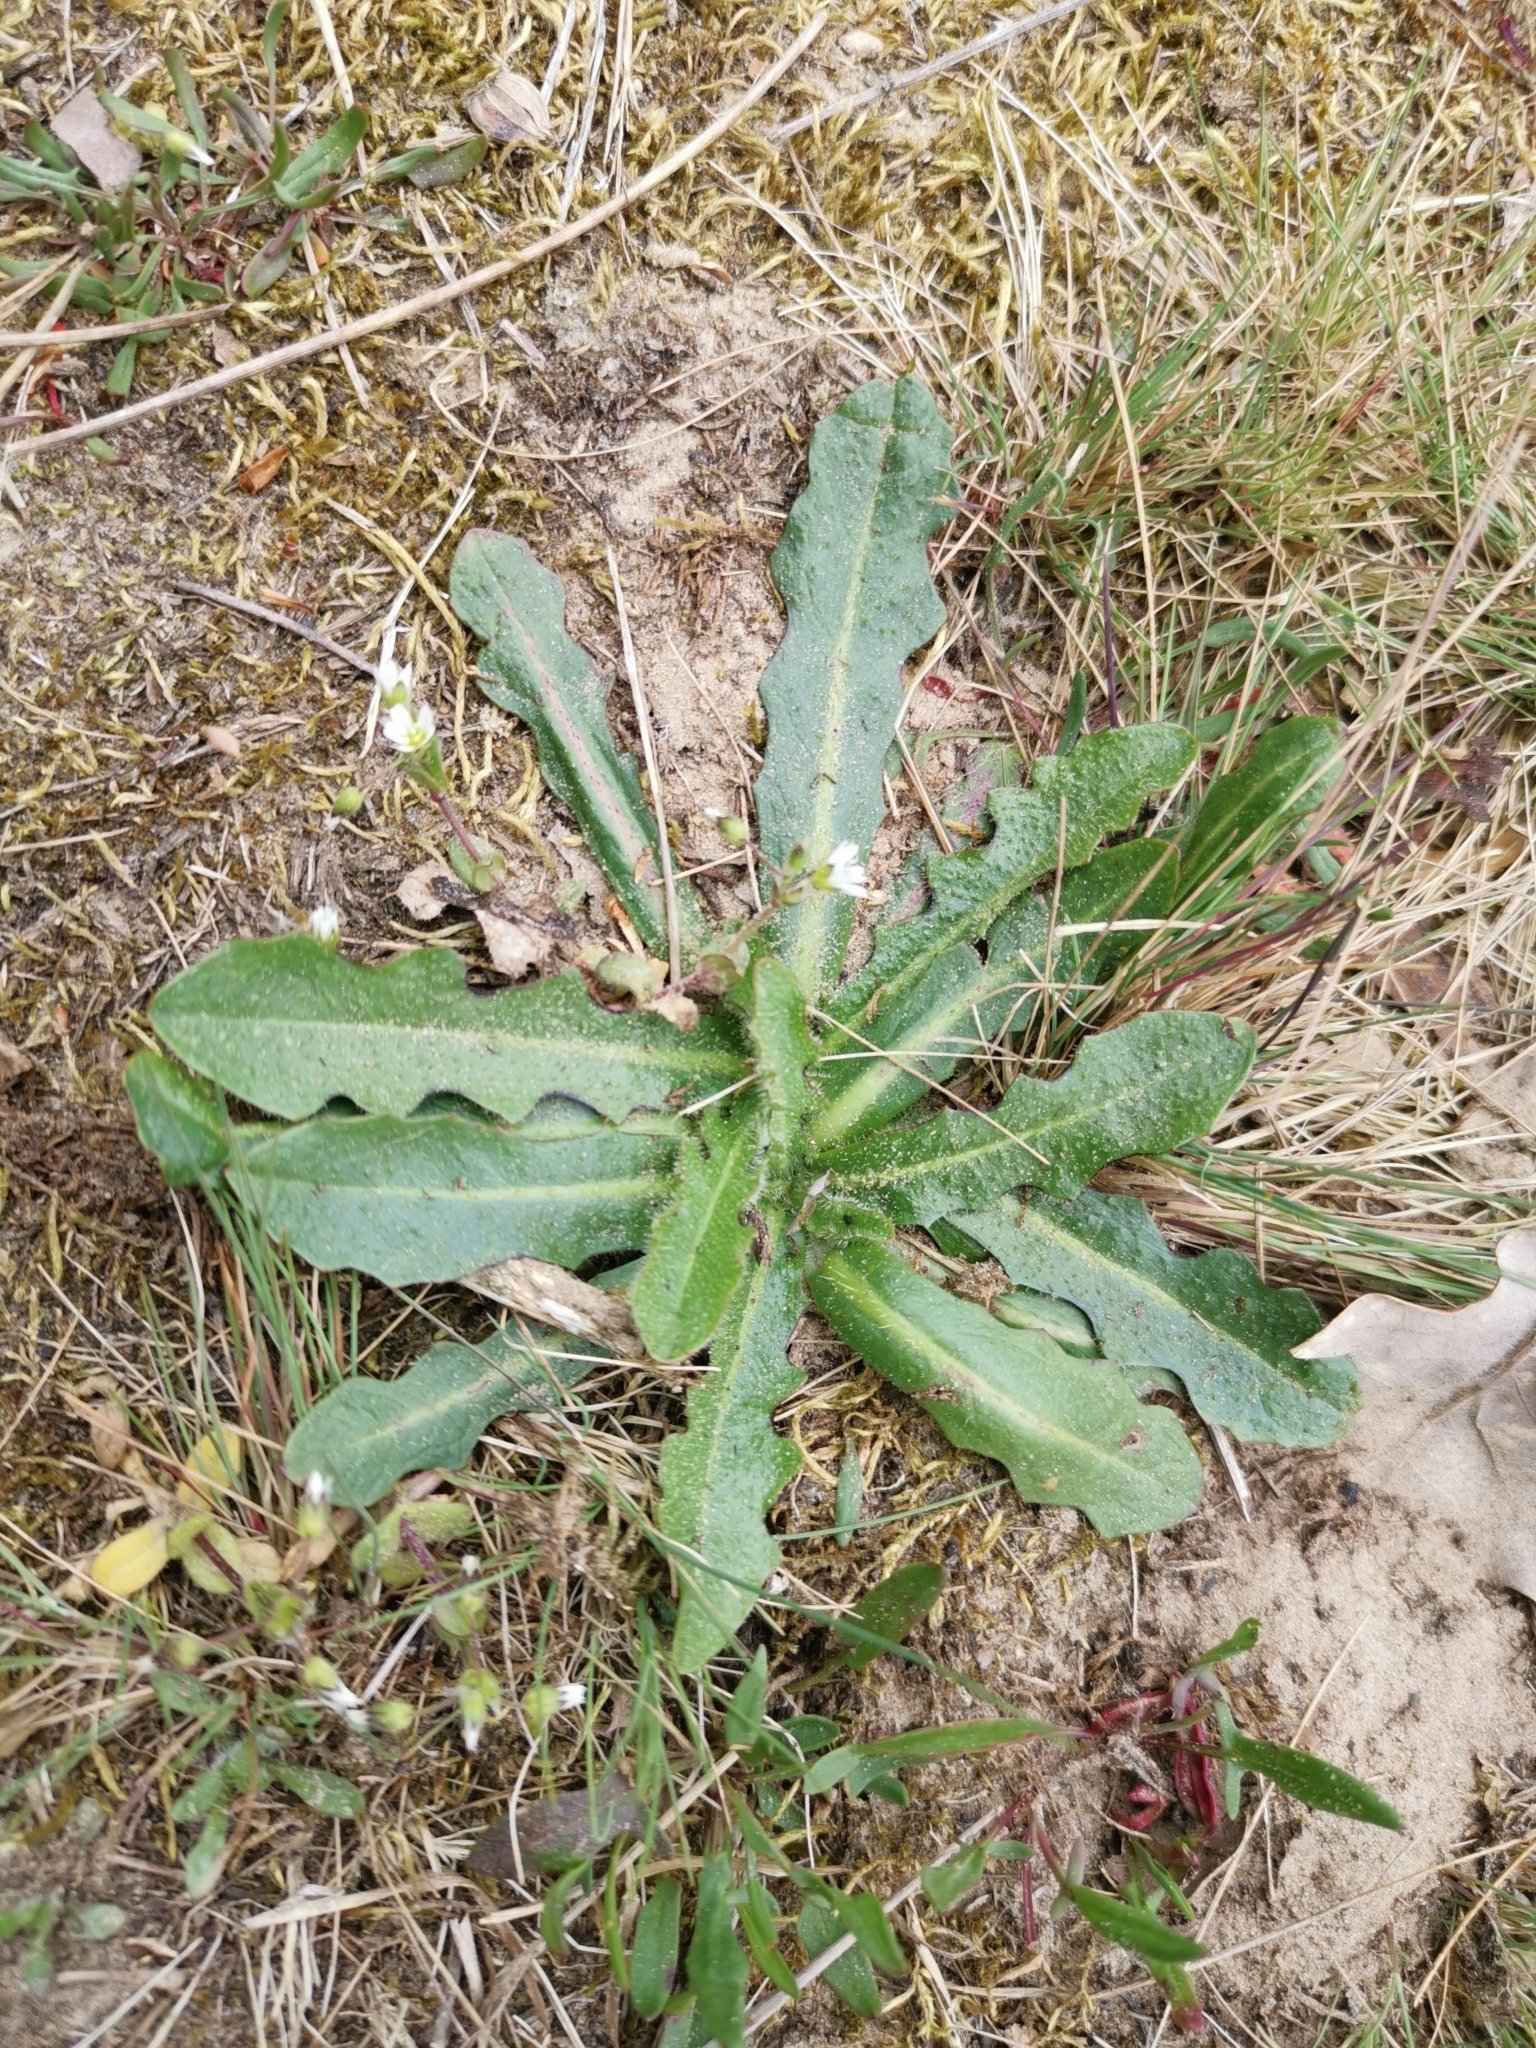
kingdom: Plantae
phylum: Tracheophyta
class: Magnoliopsida
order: Asterales
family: Asteraceae
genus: Hypochaeris
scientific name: Hypochaeris radicata
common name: Flatweed
